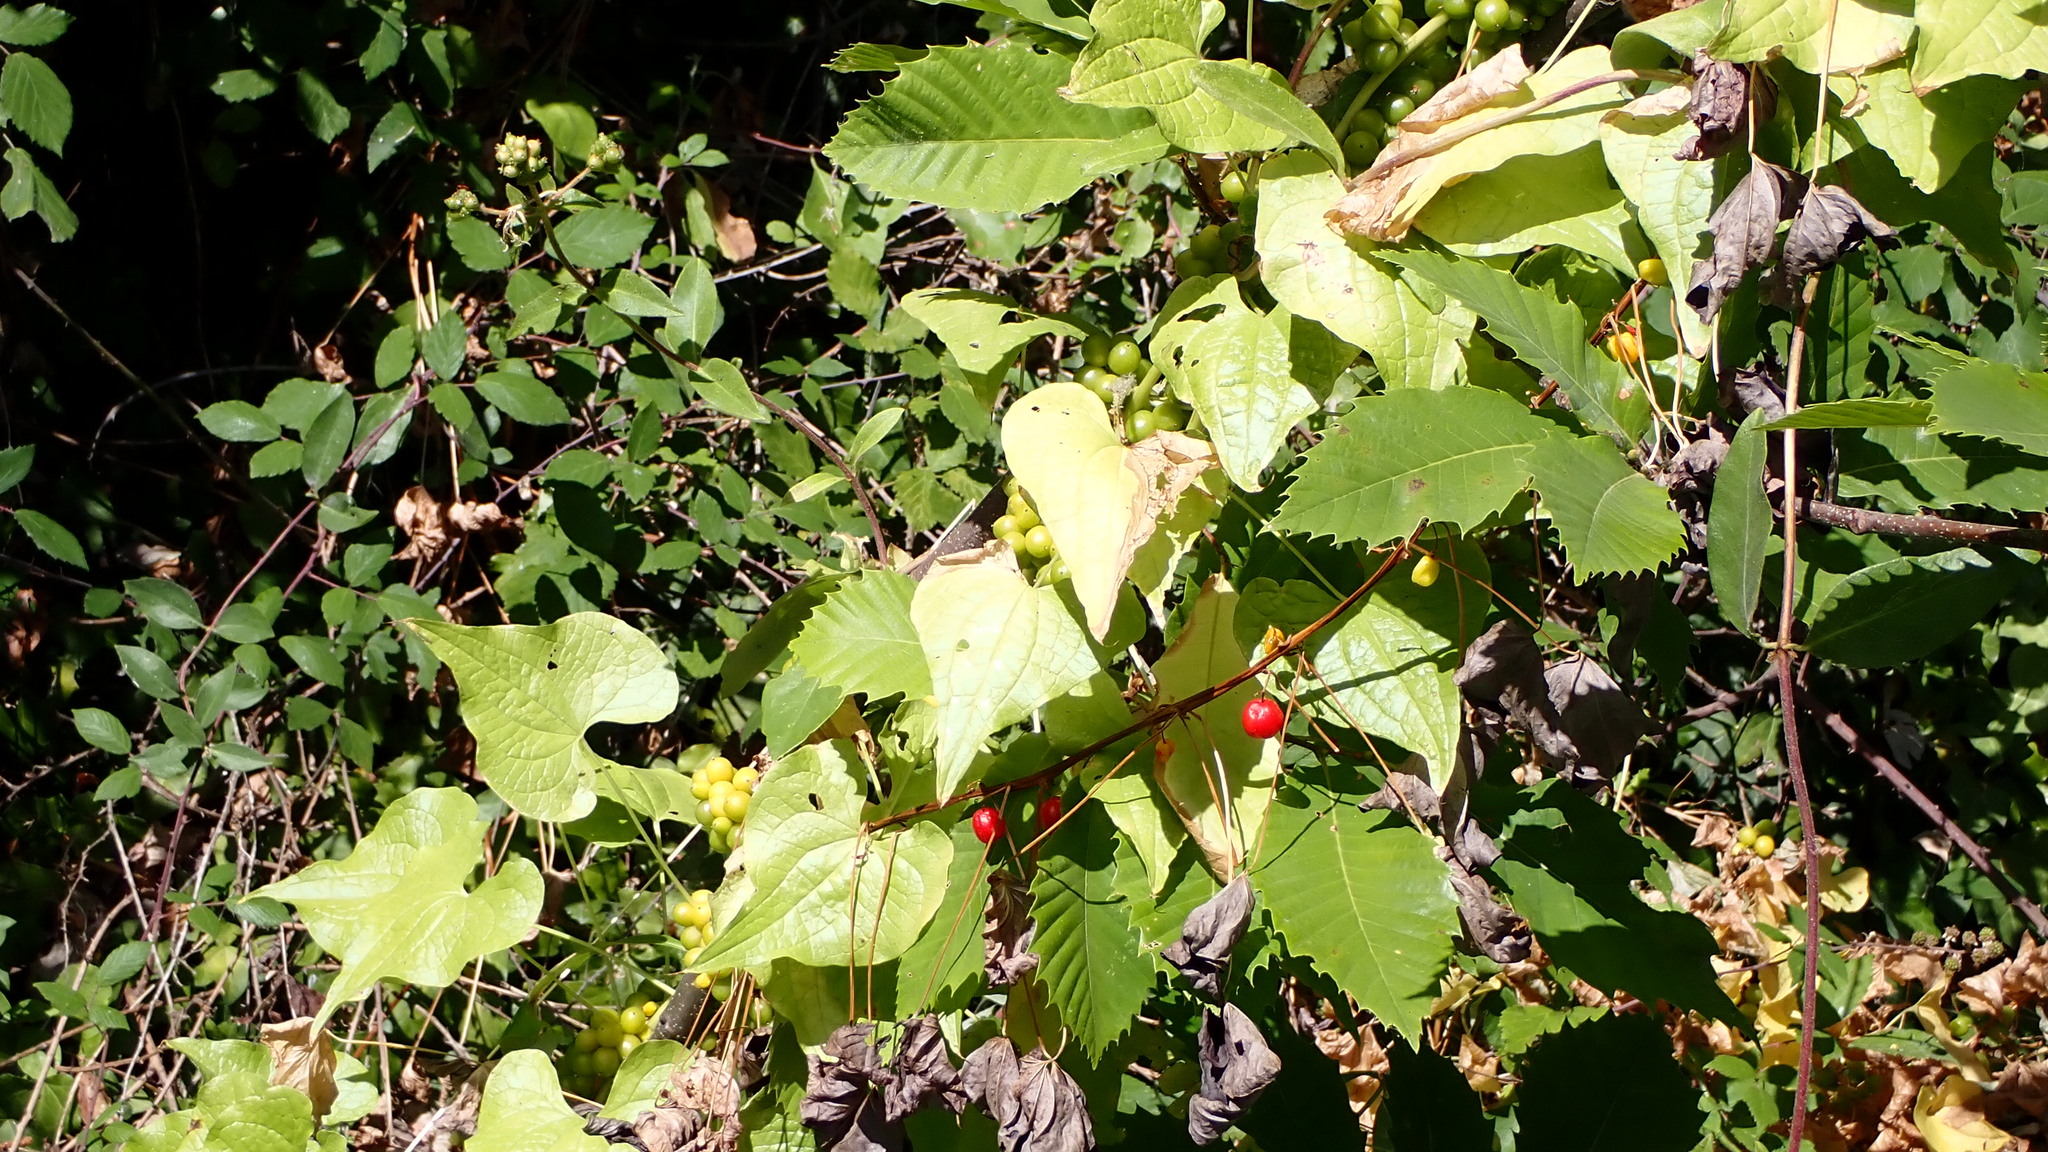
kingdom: Plantae
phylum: Tracheophyta
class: Liliopsida
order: Dioscoreales
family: Dioscoreaceae
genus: Dioscorea
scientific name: Dioscorea communis
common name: Black-bindweed
